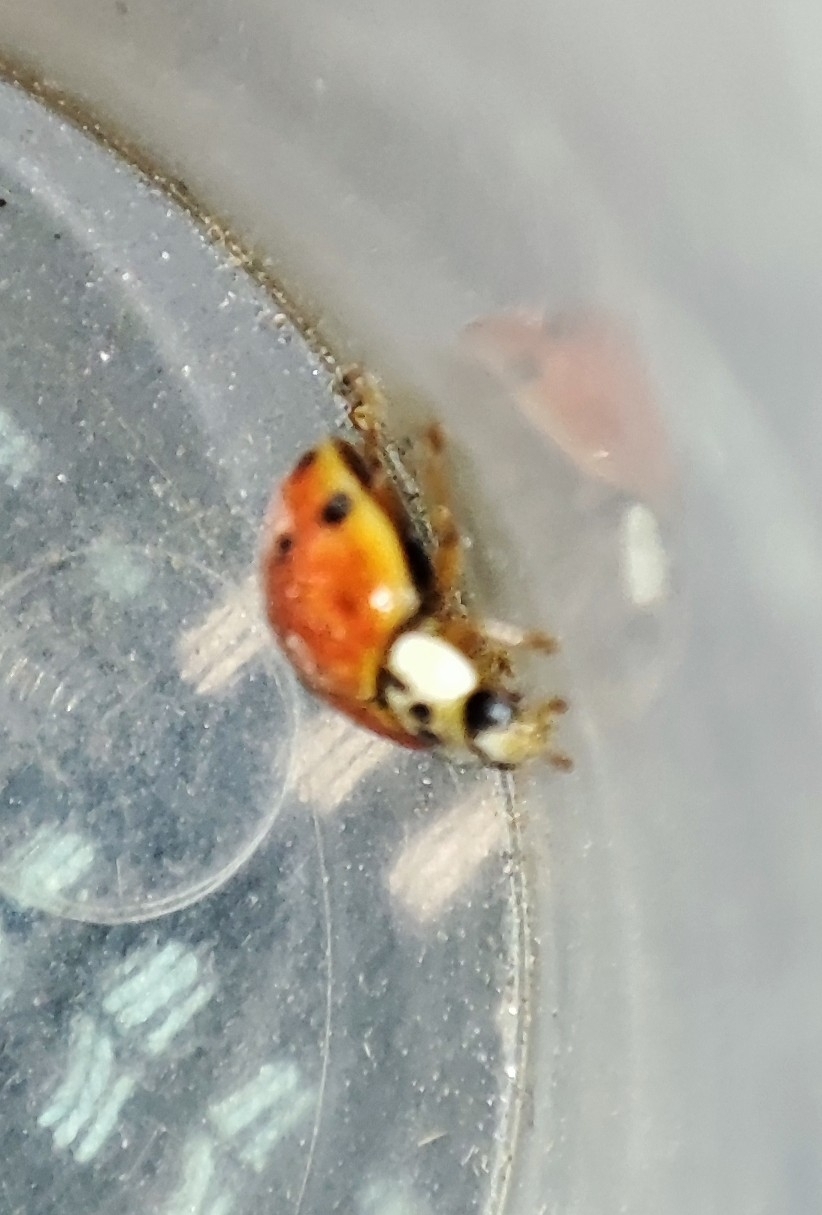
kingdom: Animalia
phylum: Arthropoda
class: Insecta
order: Coleoptera
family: Coccinellidae
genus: Harmonia
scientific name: Harmonia axyridis
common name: Harlequin ladybird
